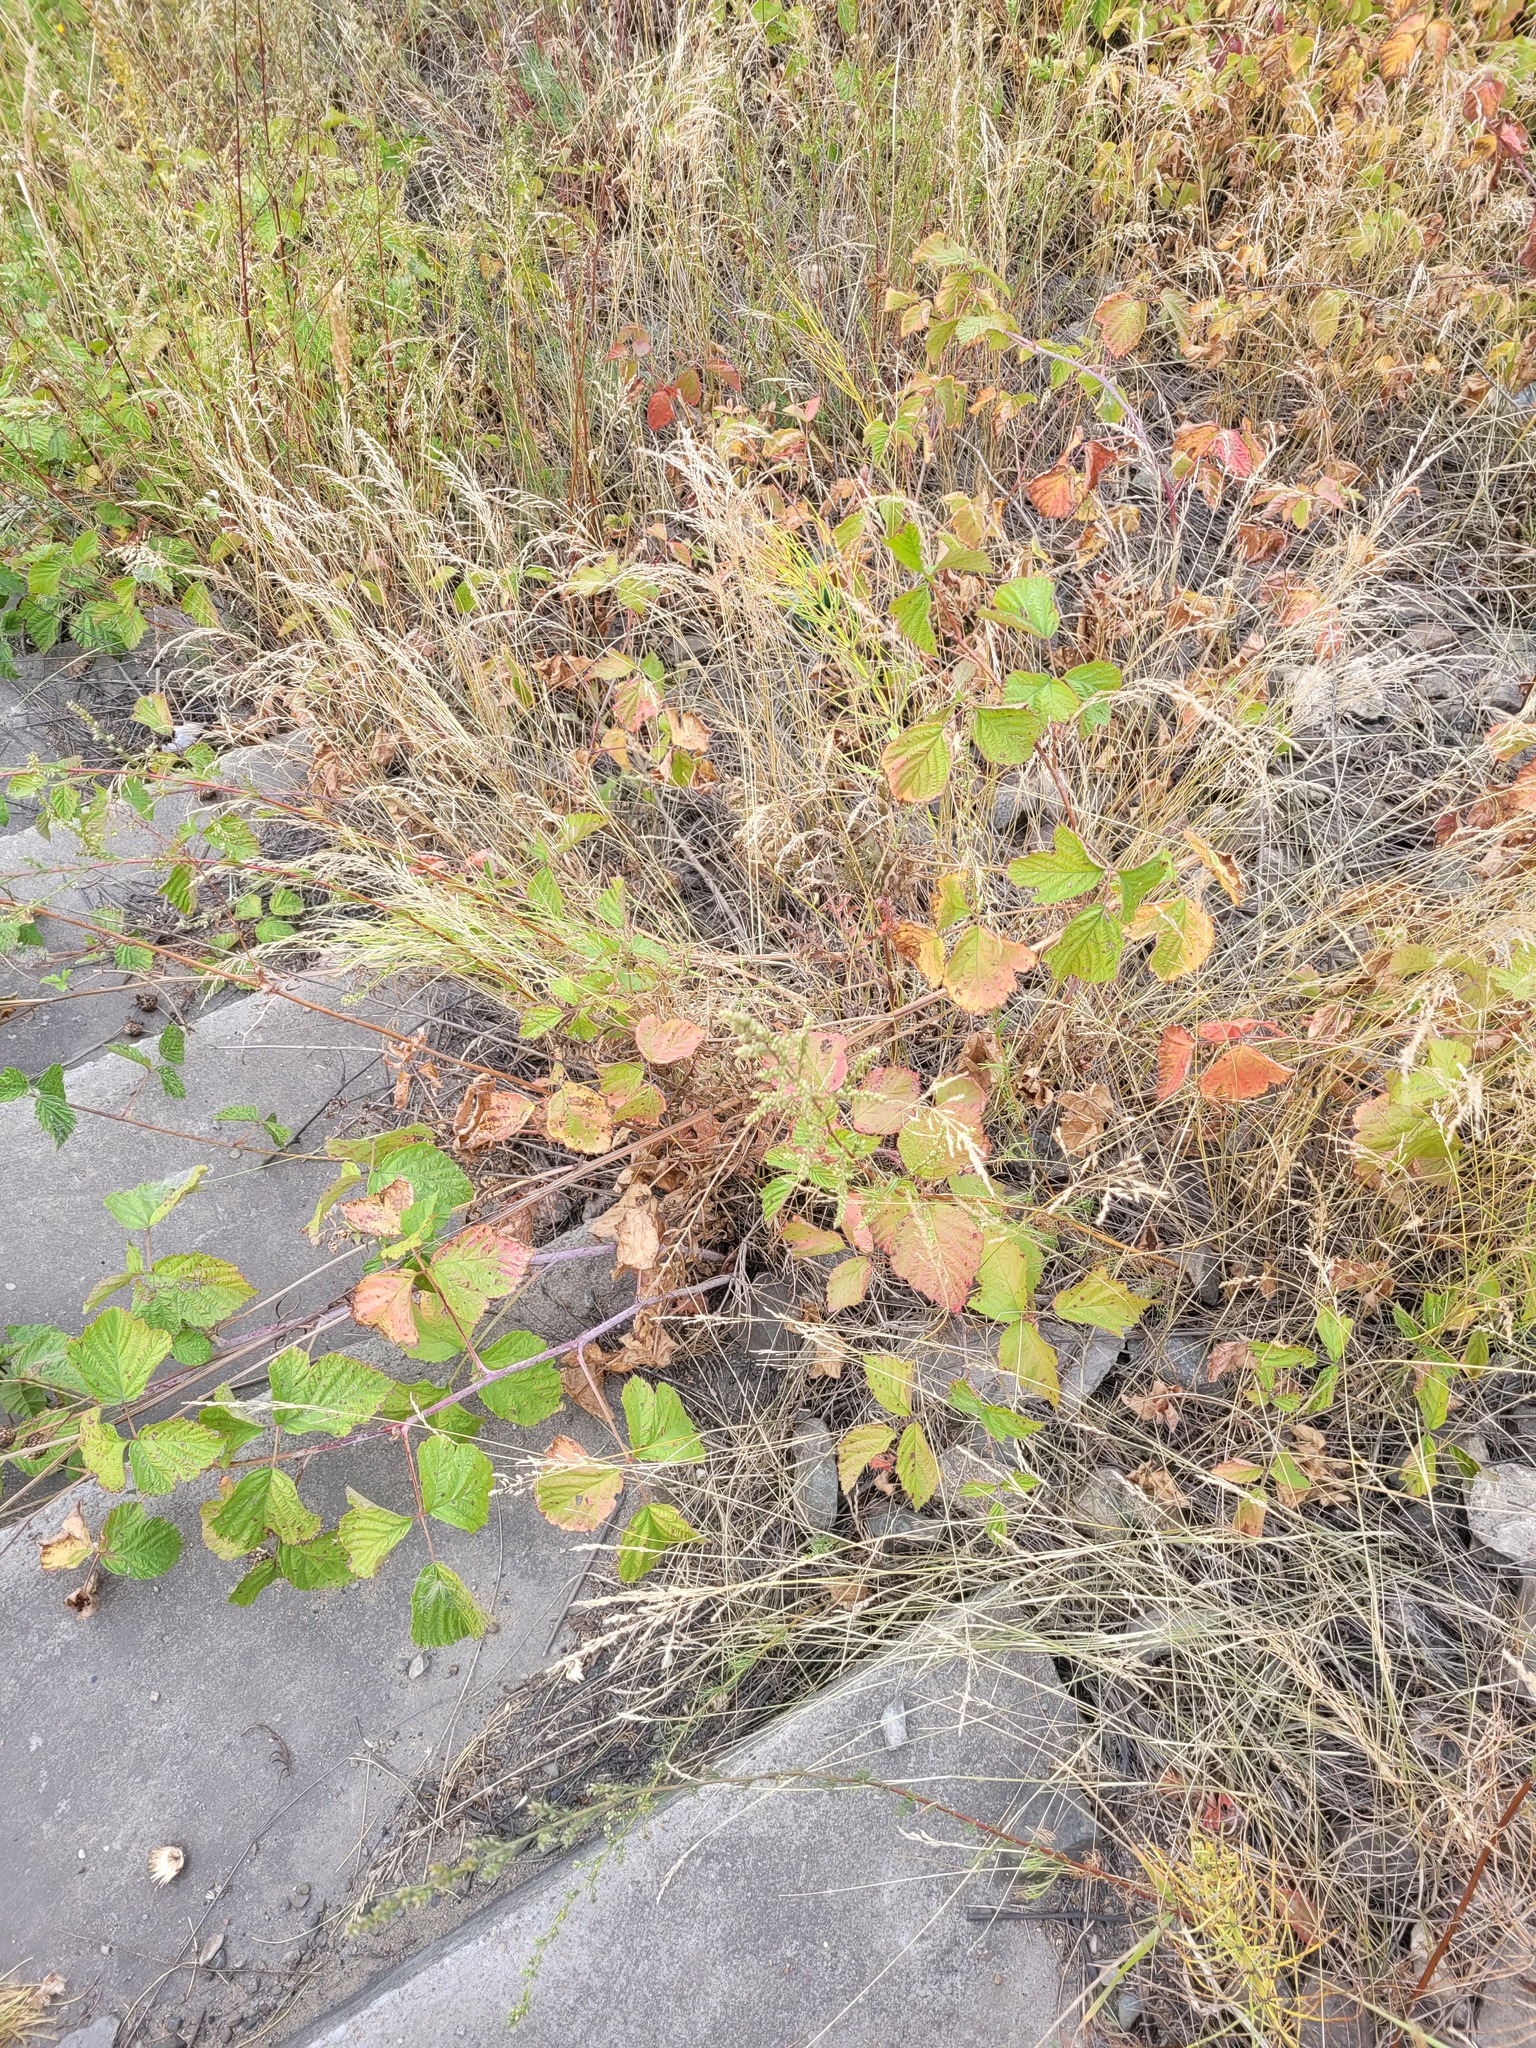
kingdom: Plantae
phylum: Tracheophyta
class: Magnoliopsida
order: Rosales
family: Rosaceae
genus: Rubus
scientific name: Rubus caesius
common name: Dewberry
